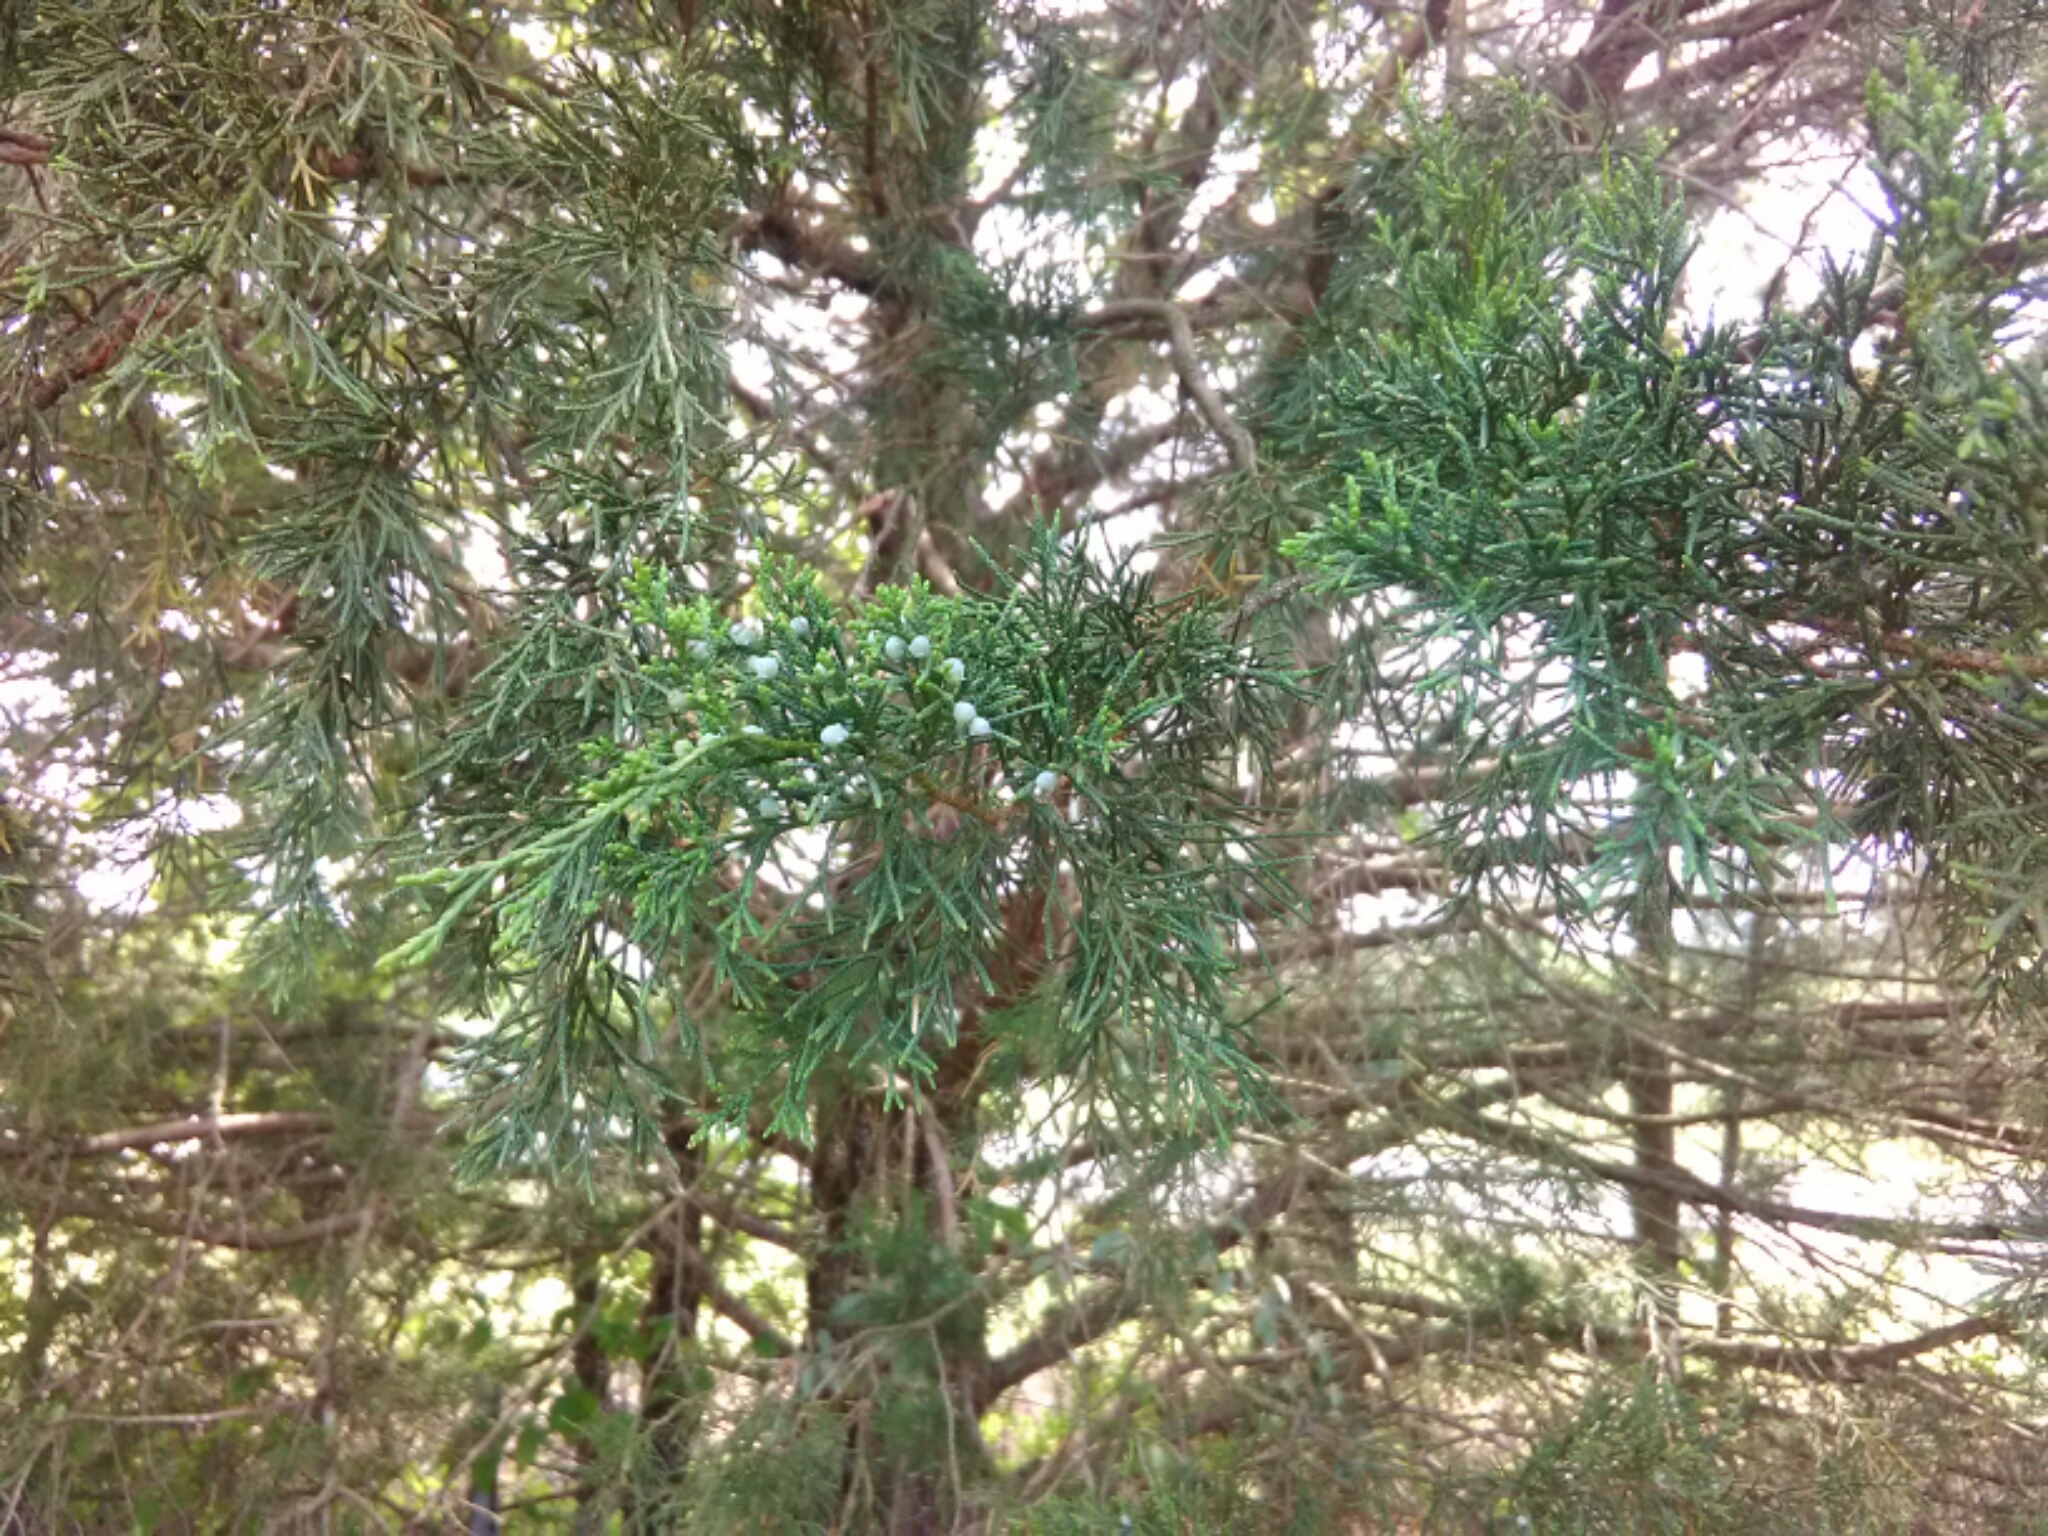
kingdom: Plantae
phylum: Tracheophyta
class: Pinopsida
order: Pinales
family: Cupressaceae
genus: Juniperus
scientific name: Juniperus virginiana
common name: Red juniper
